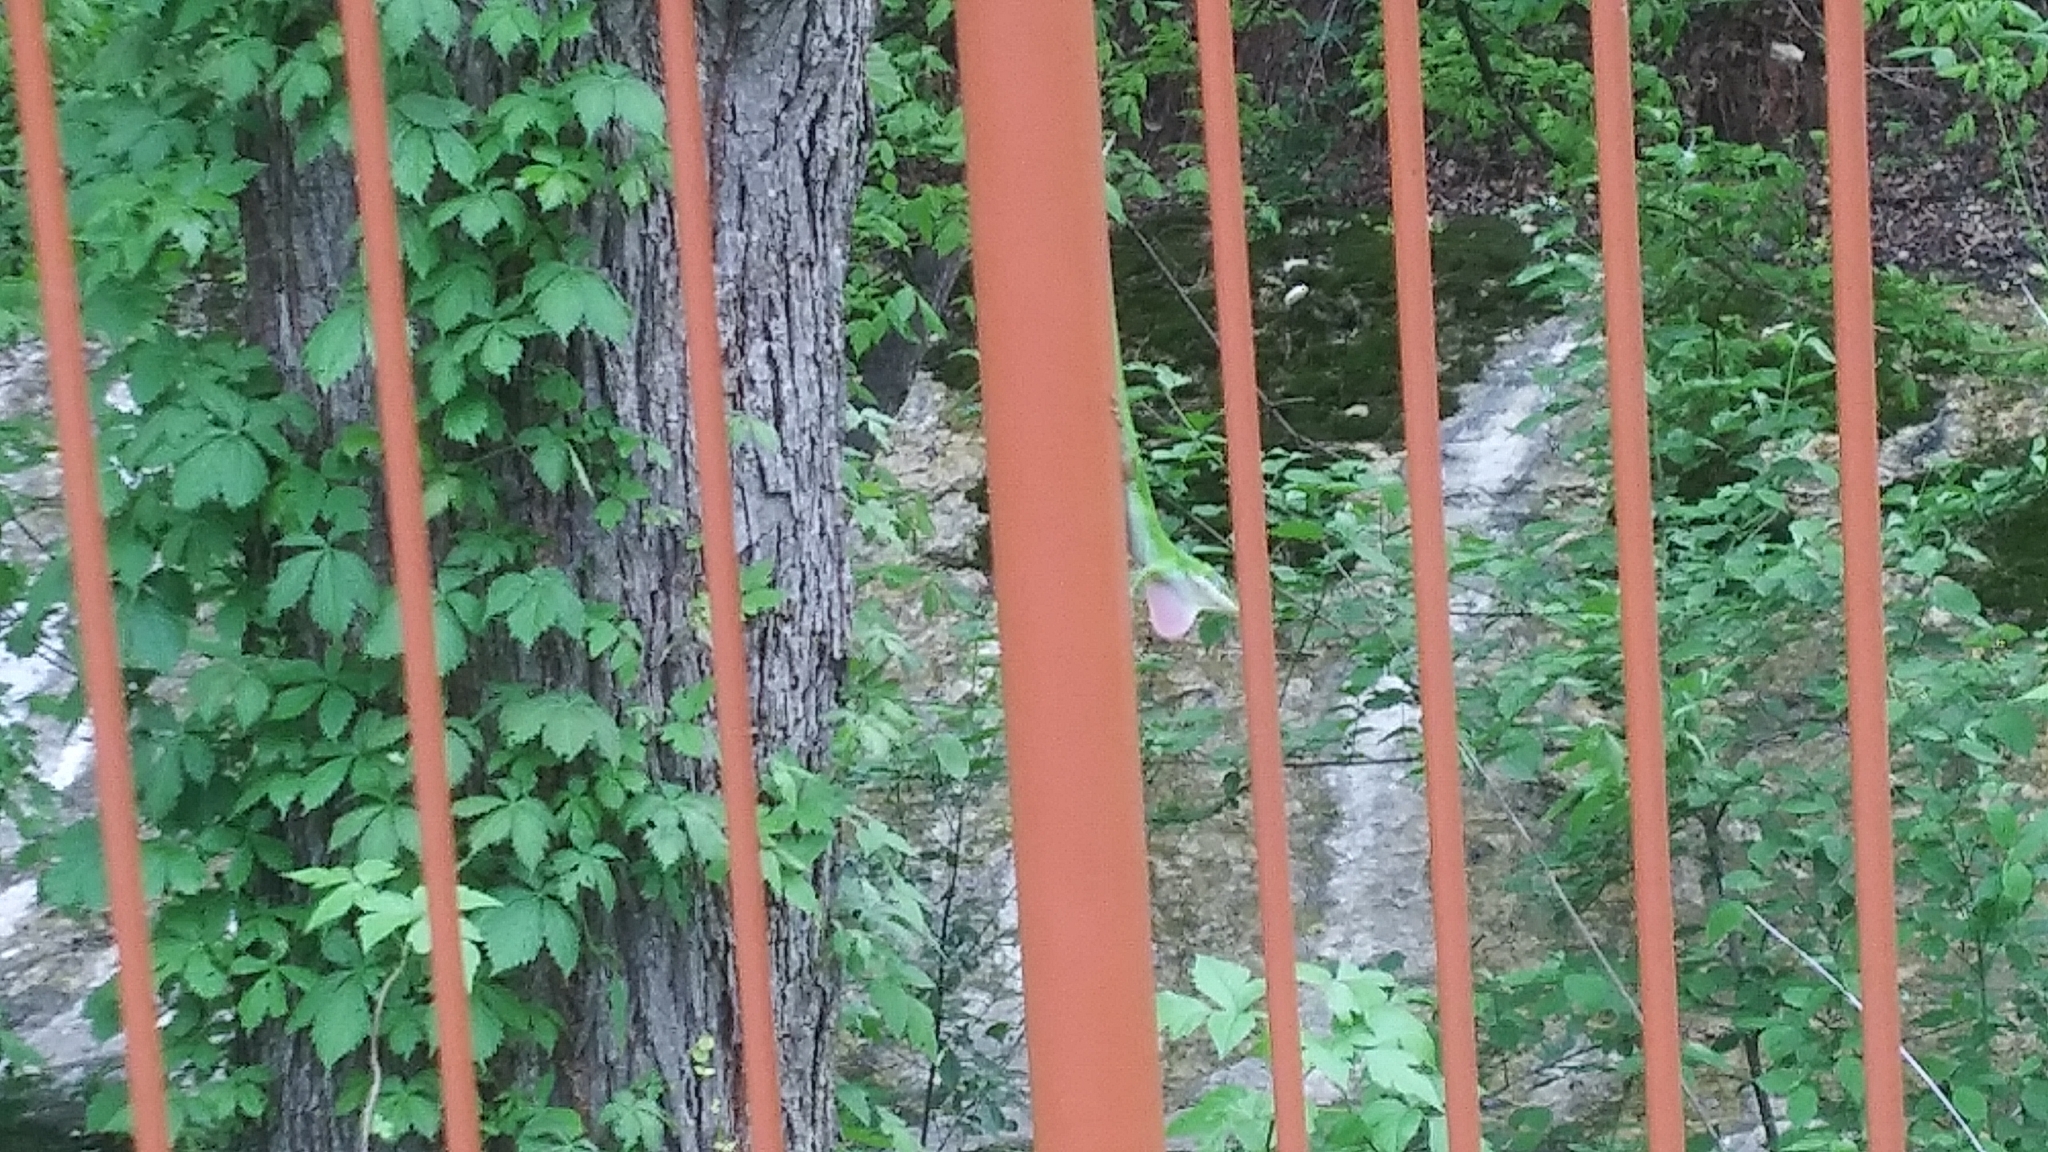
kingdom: Animalia
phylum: Chordata
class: Squamata
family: Dactyloidae
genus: Anolis
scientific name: Anolis carolinensis
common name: Green anole
